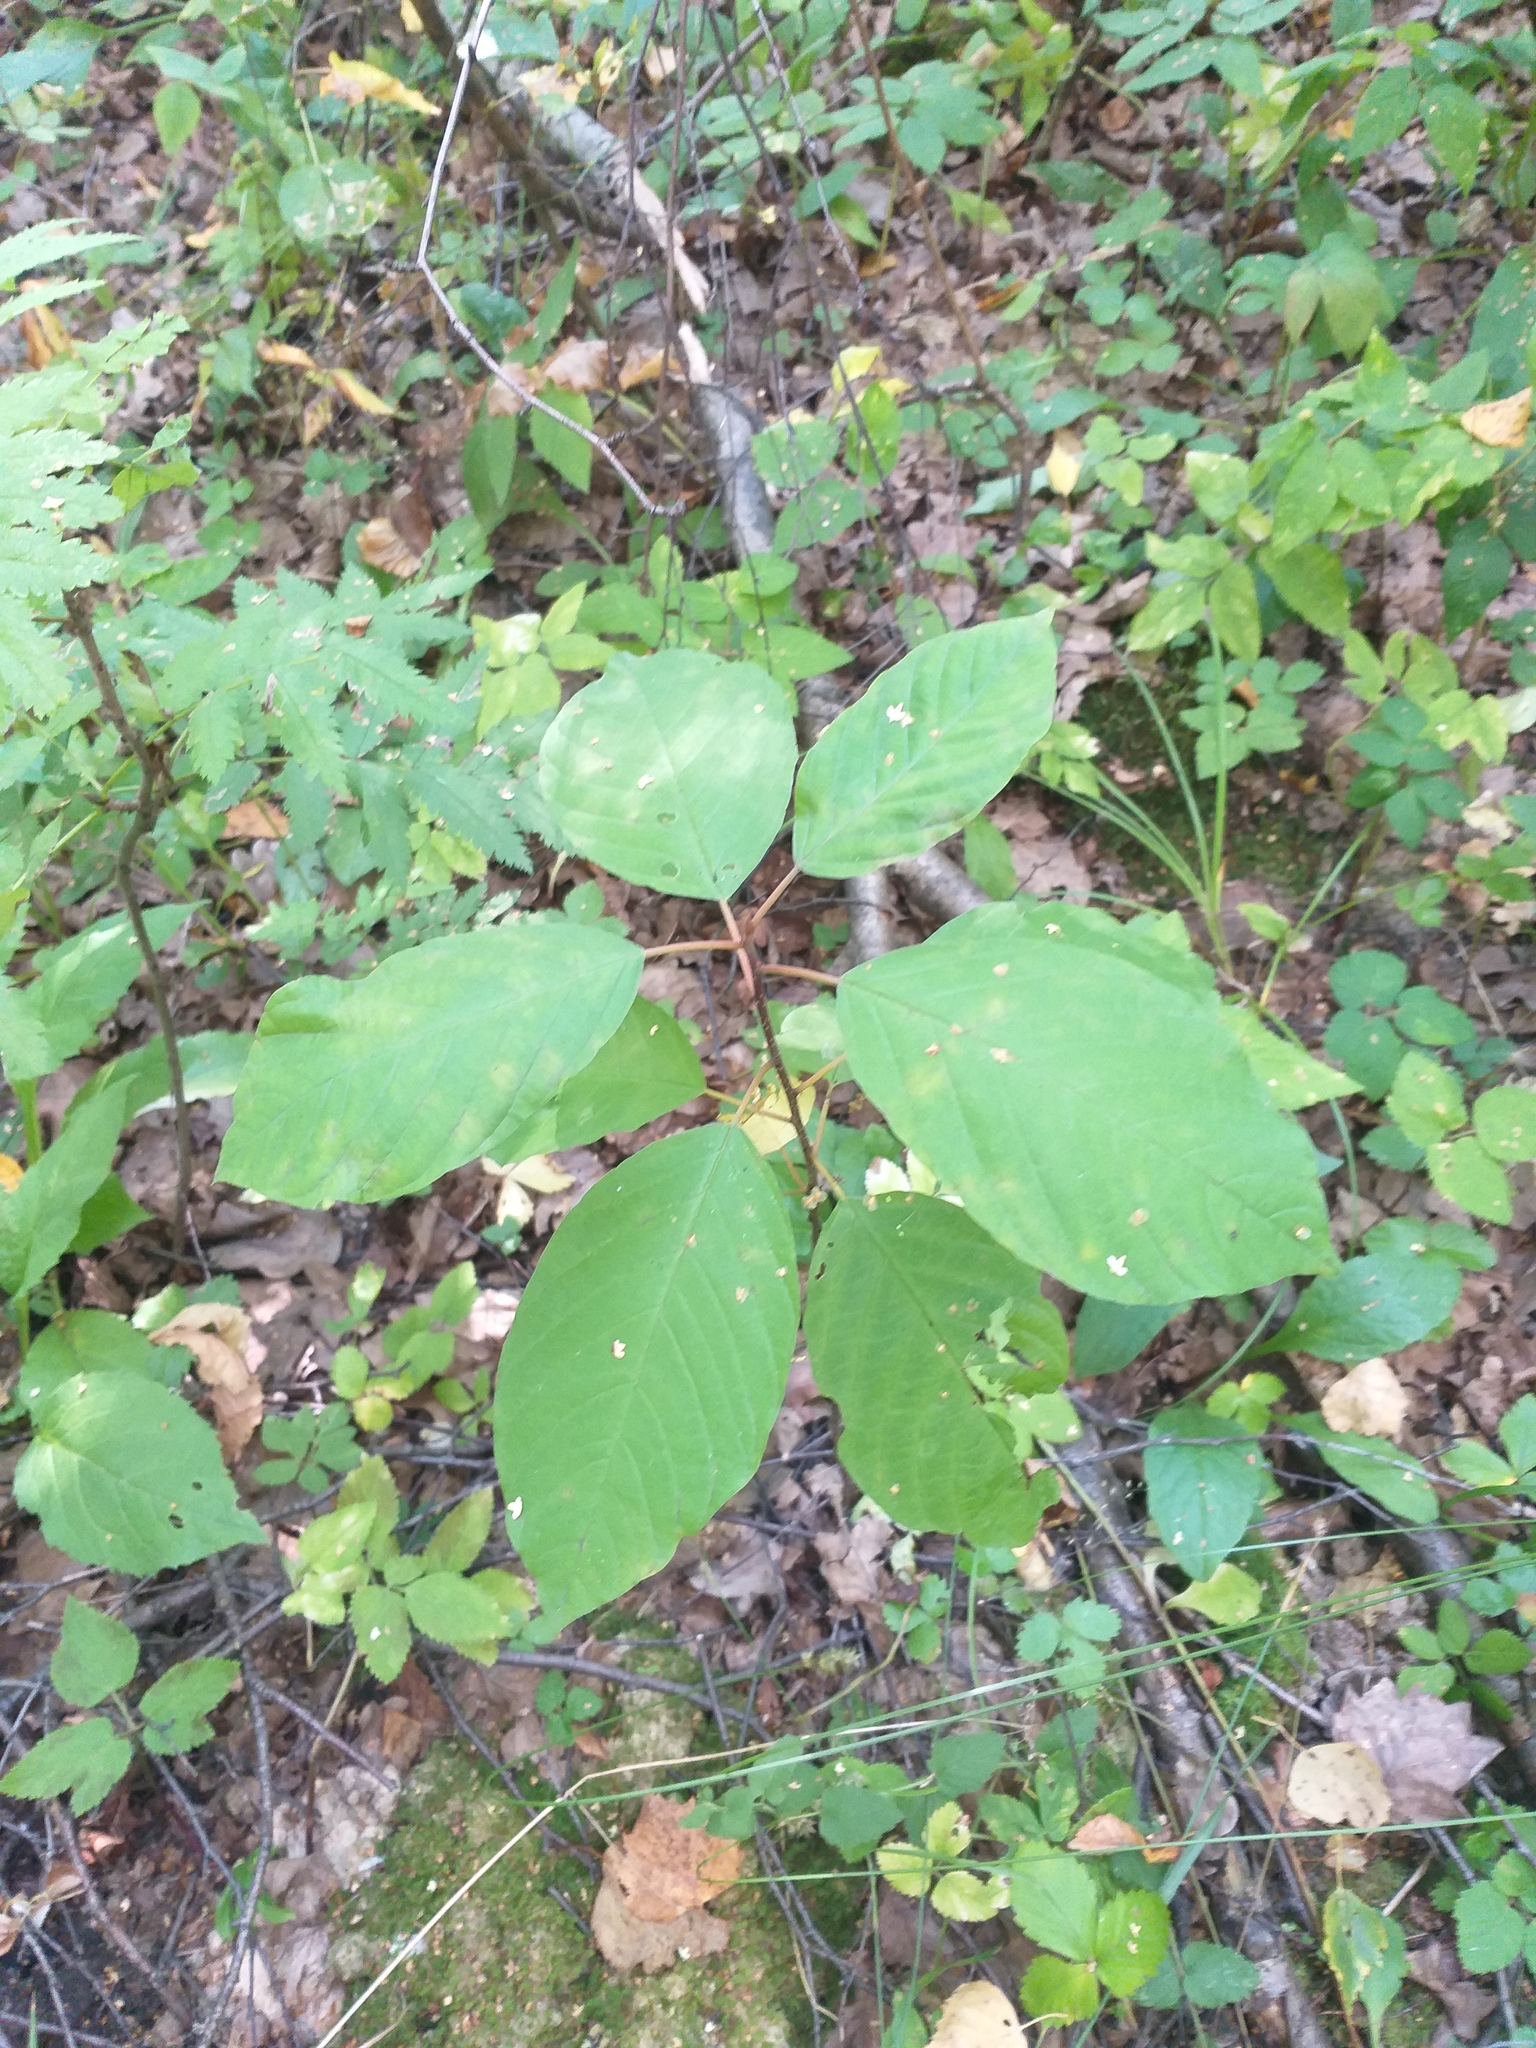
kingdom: Plantae
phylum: Tracheophyta
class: Magnoliopsida
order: Rosales
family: Rhamnaceae
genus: Frangula
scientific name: Frangula alnus
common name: Alder buckthorn
